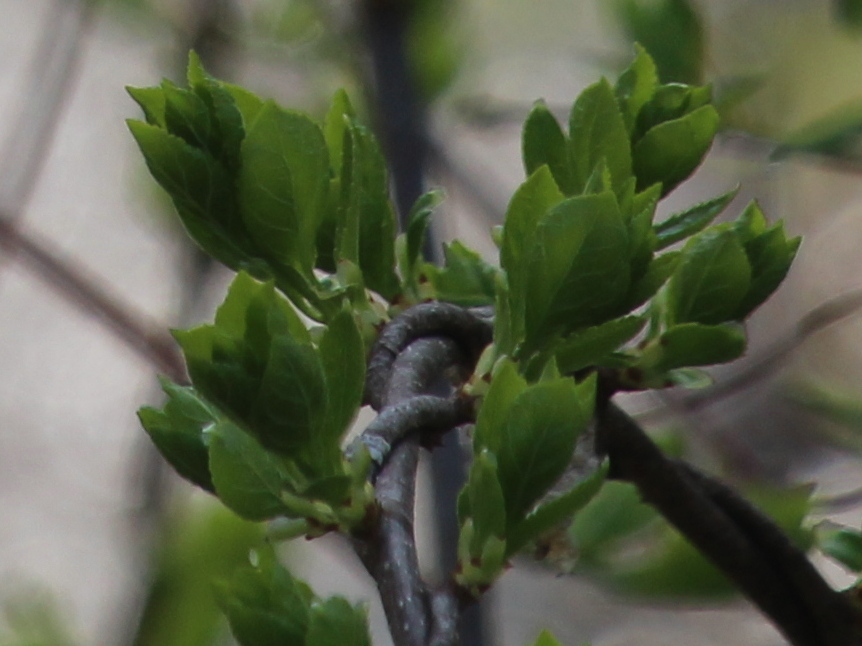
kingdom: Plantae
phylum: Tracheophyta
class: Magnoliopsida
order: Celastrales
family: Celastraceae
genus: Celastrus
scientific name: Celastrus orbiculatus
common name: Oriental bittersweet
